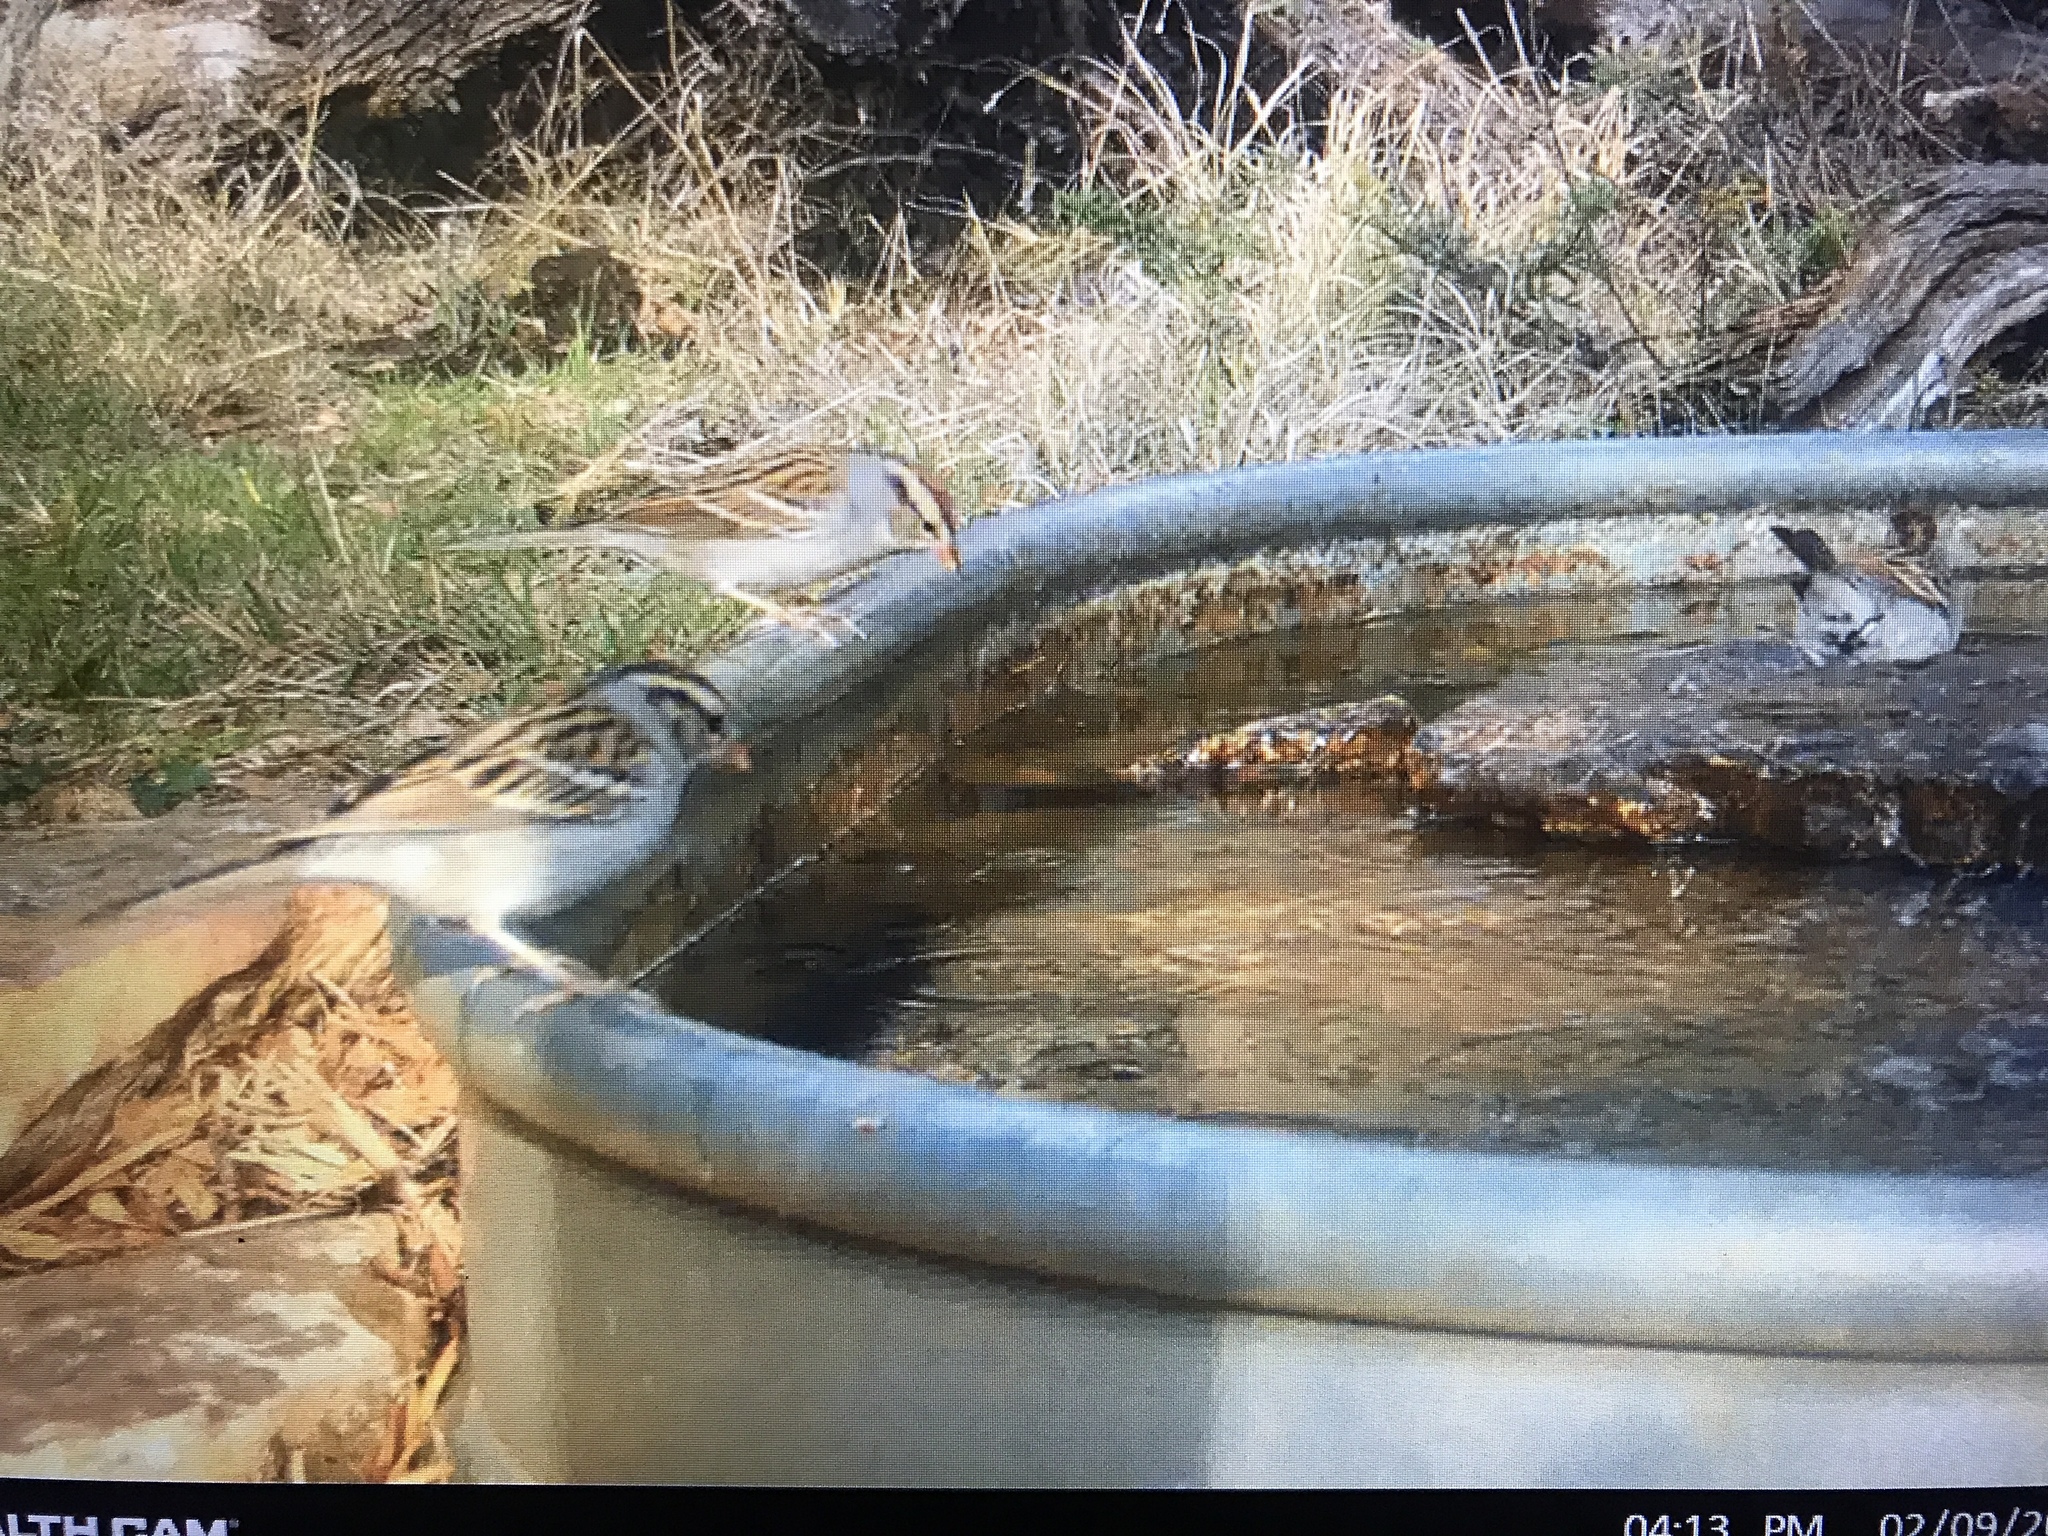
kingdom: Animalia
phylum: Chordata
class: Aves
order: Passeriformes
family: Passerellidae
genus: Spizella
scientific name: Spizella passerina
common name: Chipping sparrow
